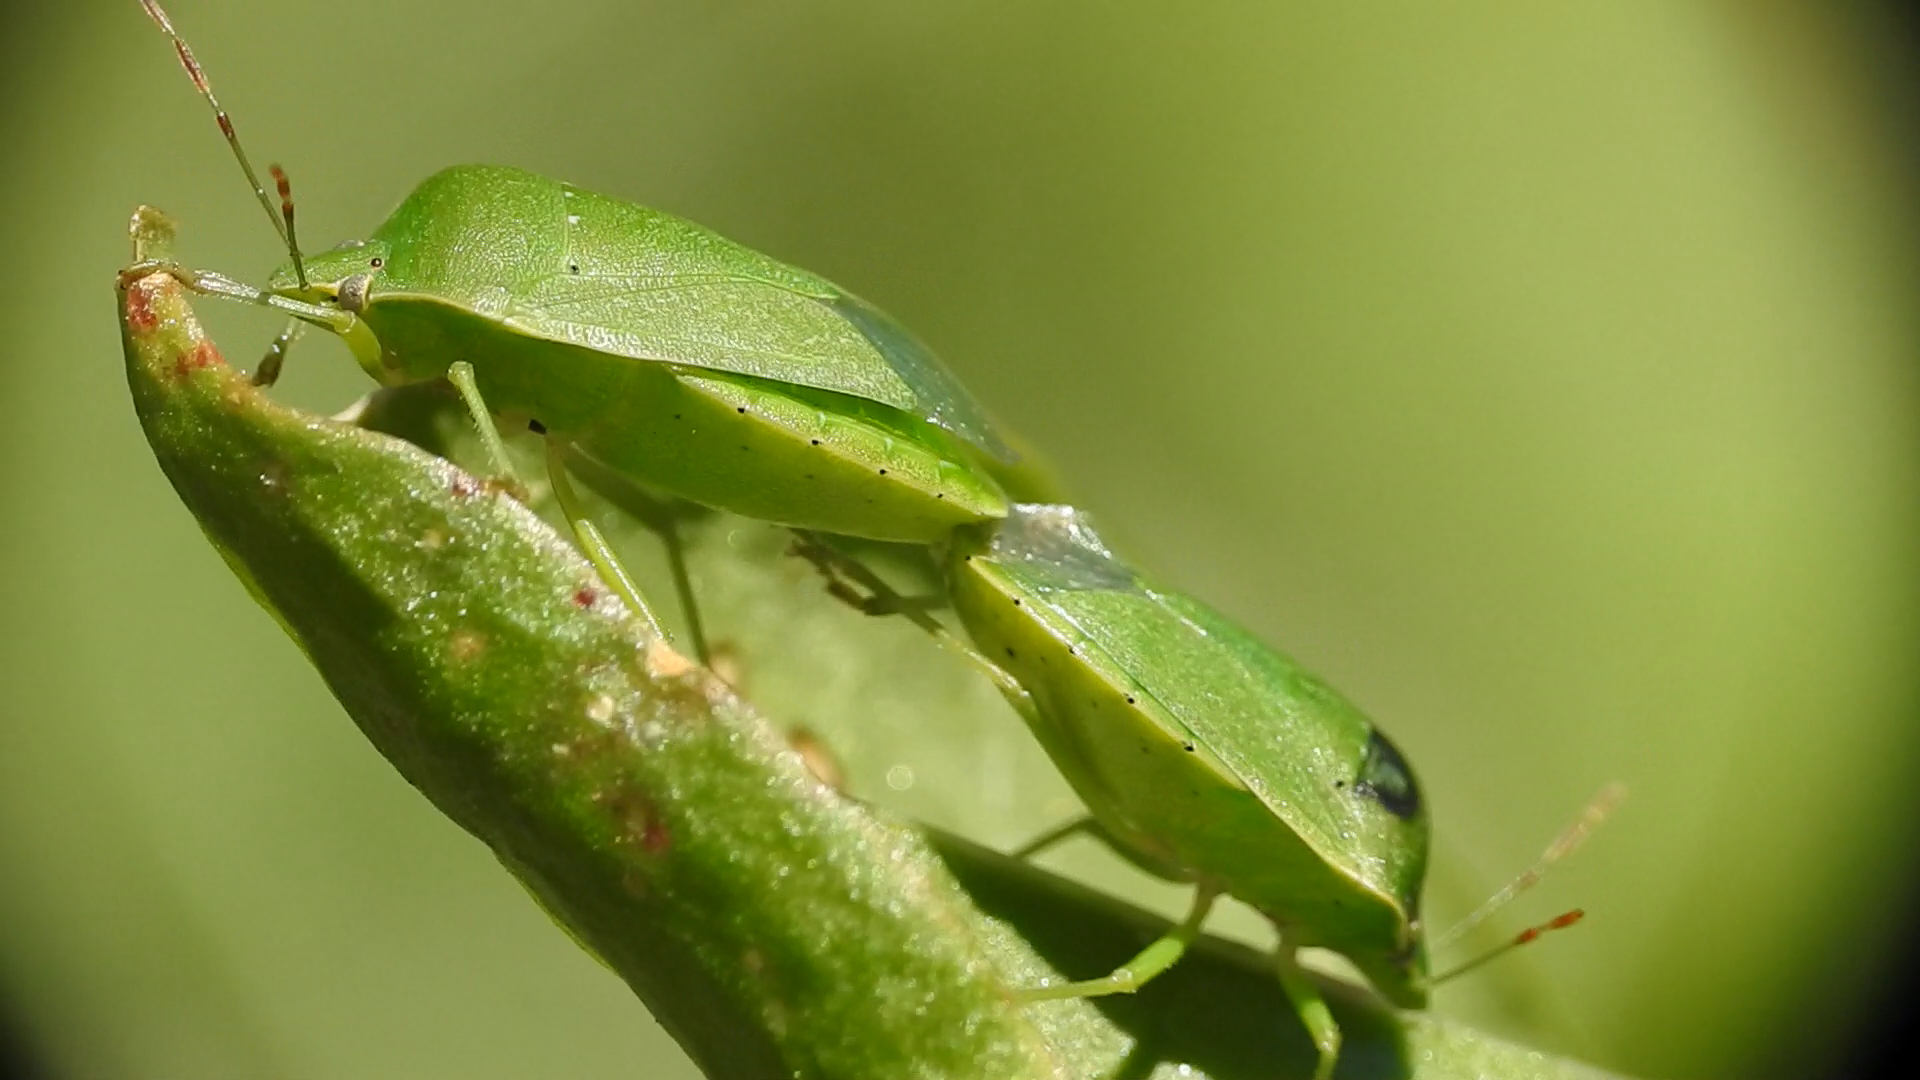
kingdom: Animalia
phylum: Arthropoda
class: Insecta
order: Hemiptera
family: Pentatomidae
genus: Nezara
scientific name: Nezara viridula
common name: Southern green stink bug
